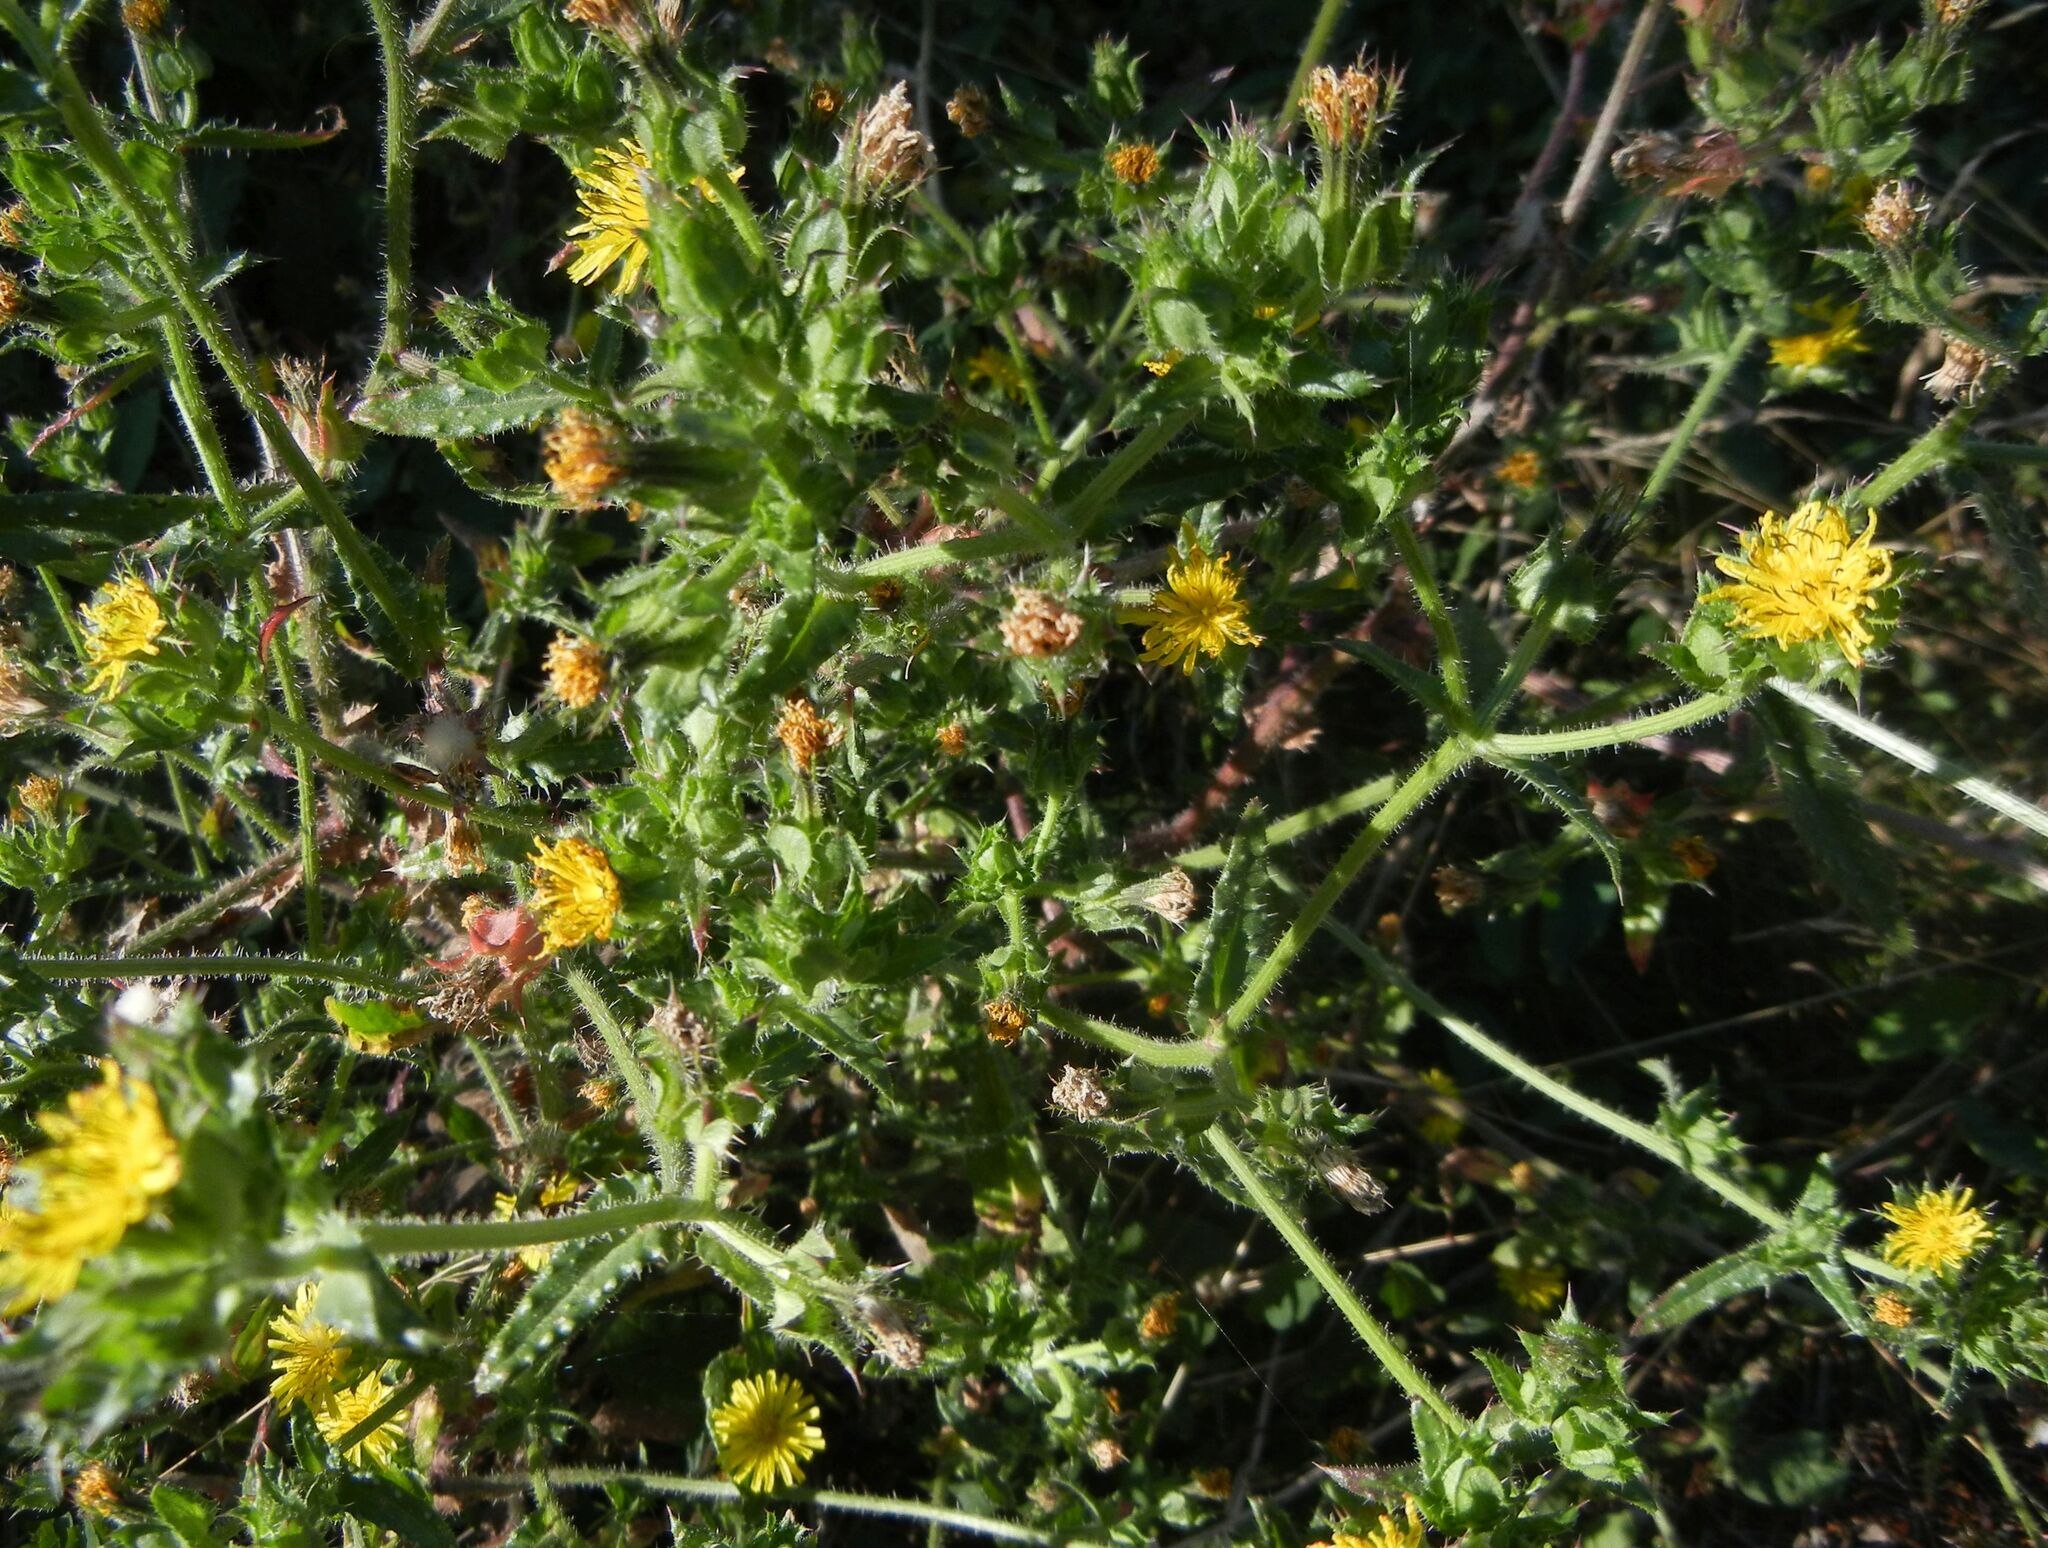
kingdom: Plantae
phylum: Tracheophyta
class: Magnoliopsida
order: Asterales
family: Asteraceae
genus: Helminthotheca
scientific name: Helminthotheca echioides
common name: Ox-tongue
